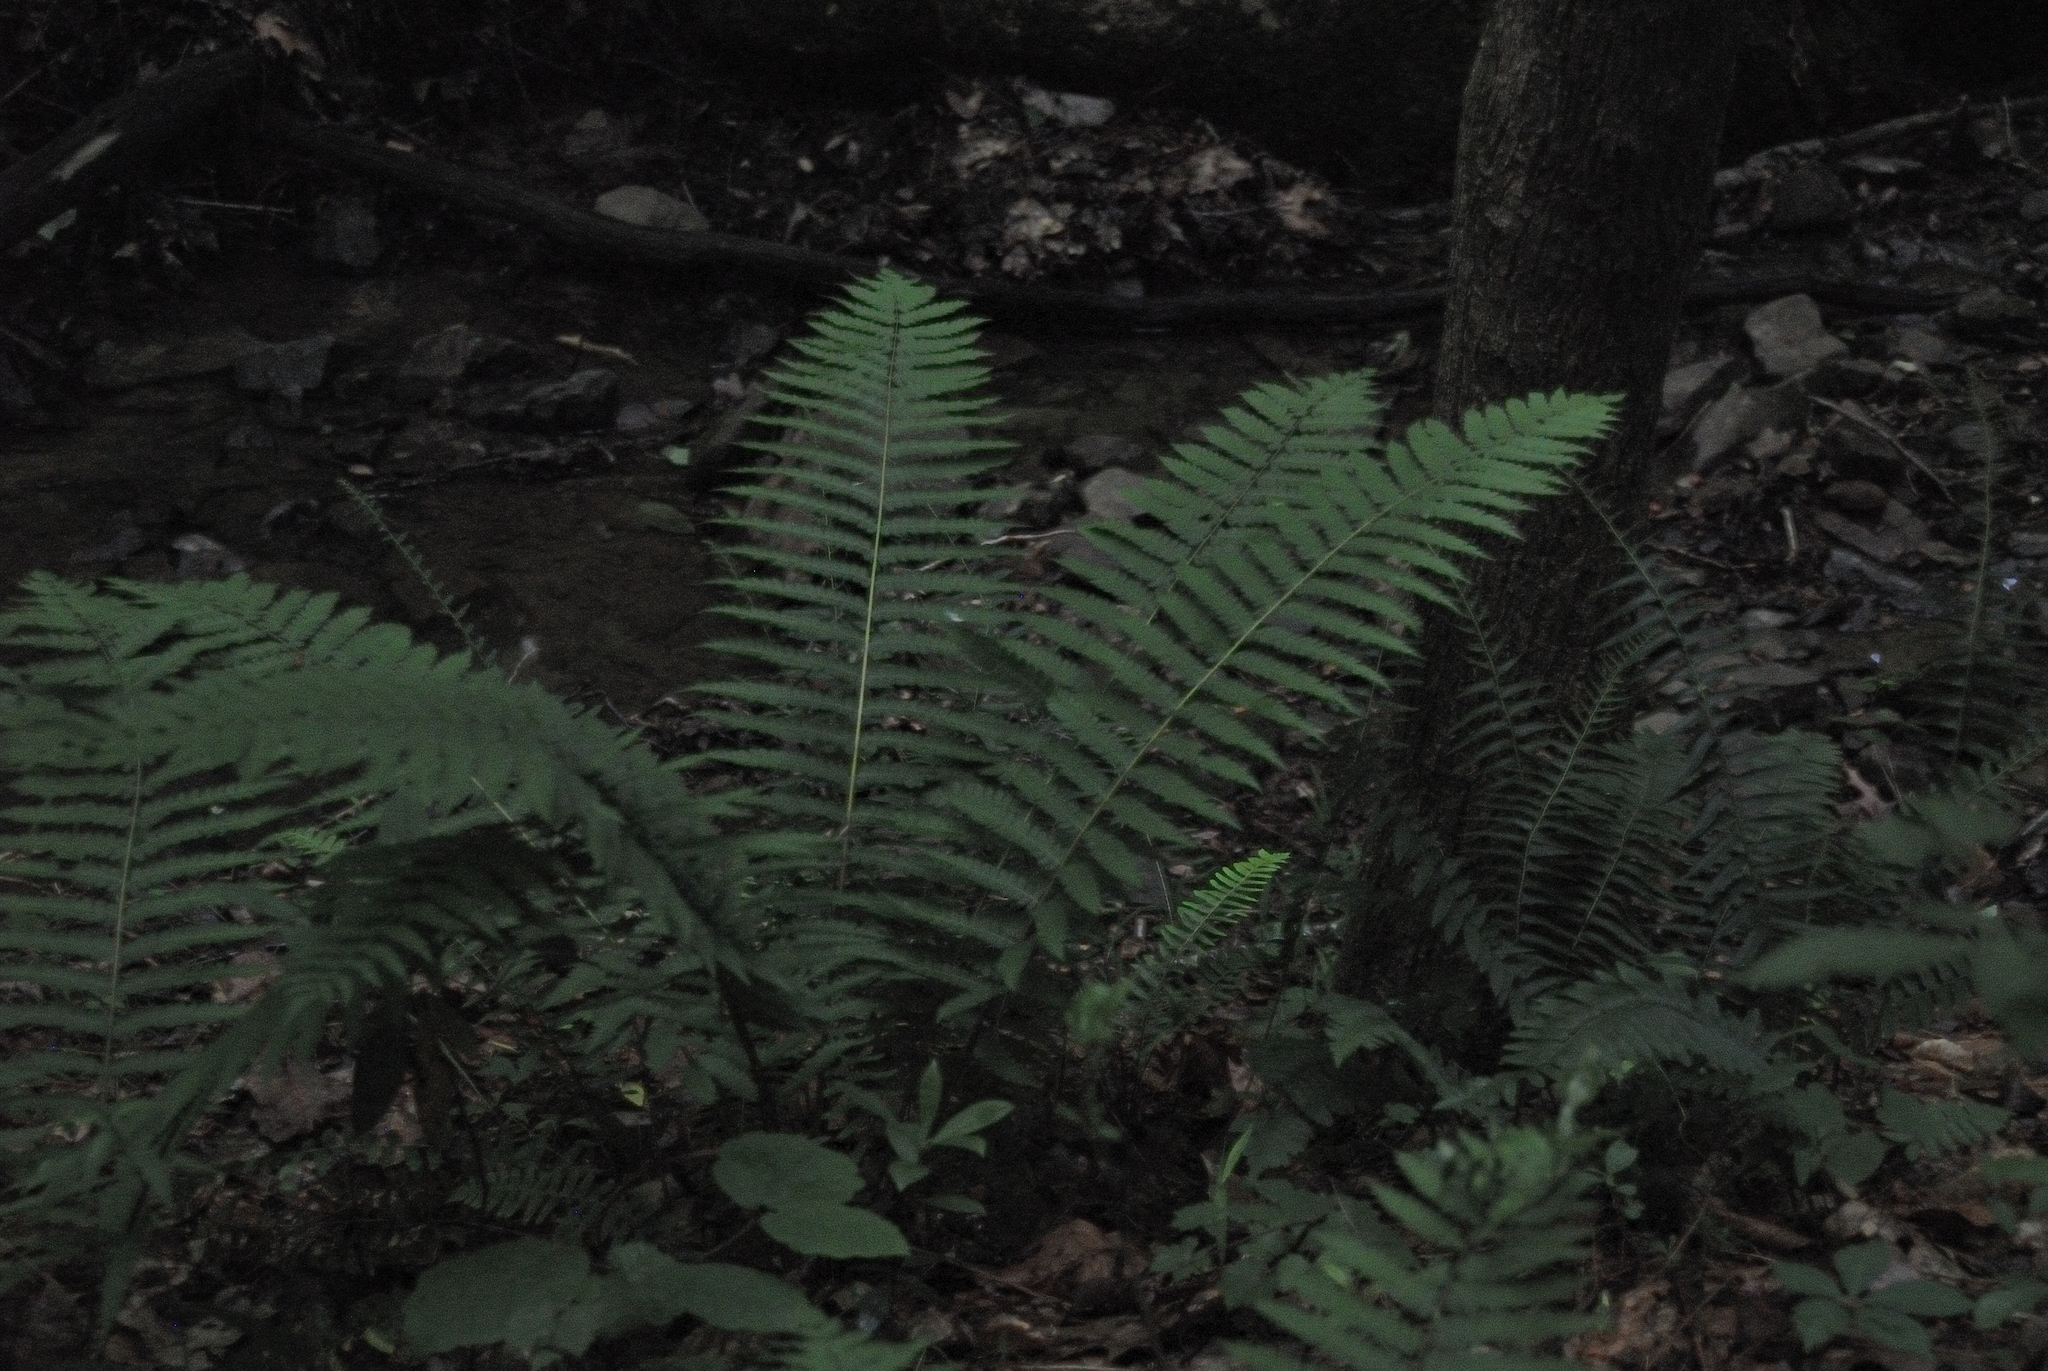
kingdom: Plantae
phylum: Tracheophyta
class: Polypodiopsida
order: Osmundales
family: Osmundaceae
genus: Osmundastrum
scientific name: Osmundastrum cinnamomeum
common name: Cinnamon fern
